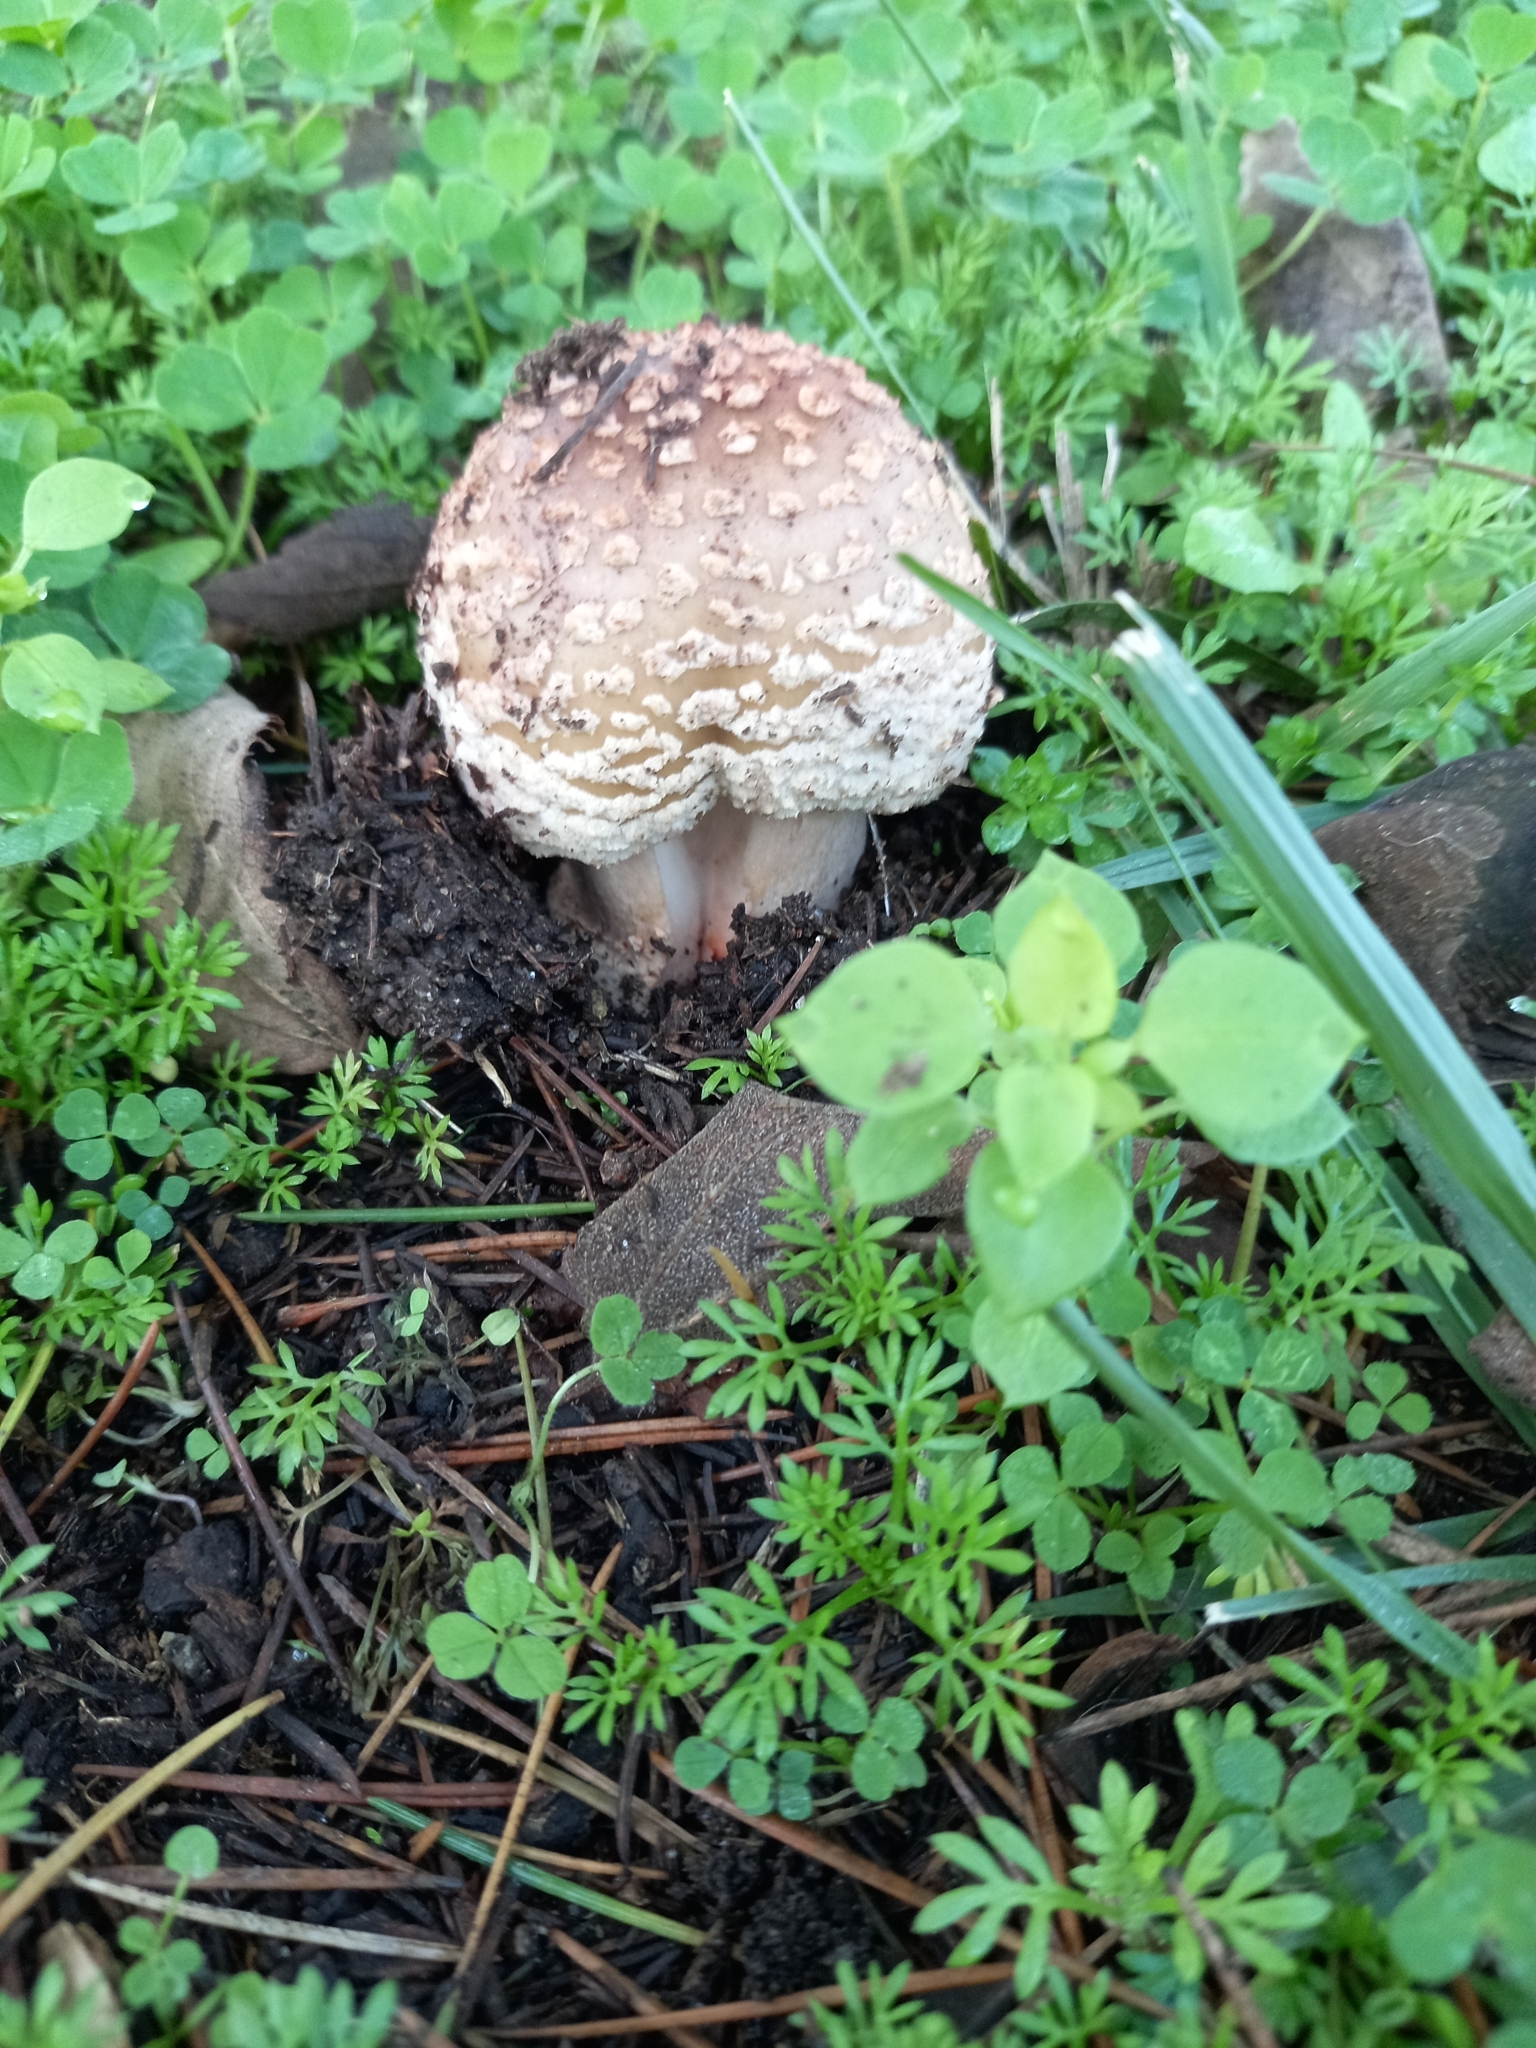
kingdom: Fungi
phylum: Basidiomycota
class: Agaricomycetes
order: Agaricales
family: Amanitaceae
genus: Amanita
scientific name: Amanita rubescens
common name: Blusher
